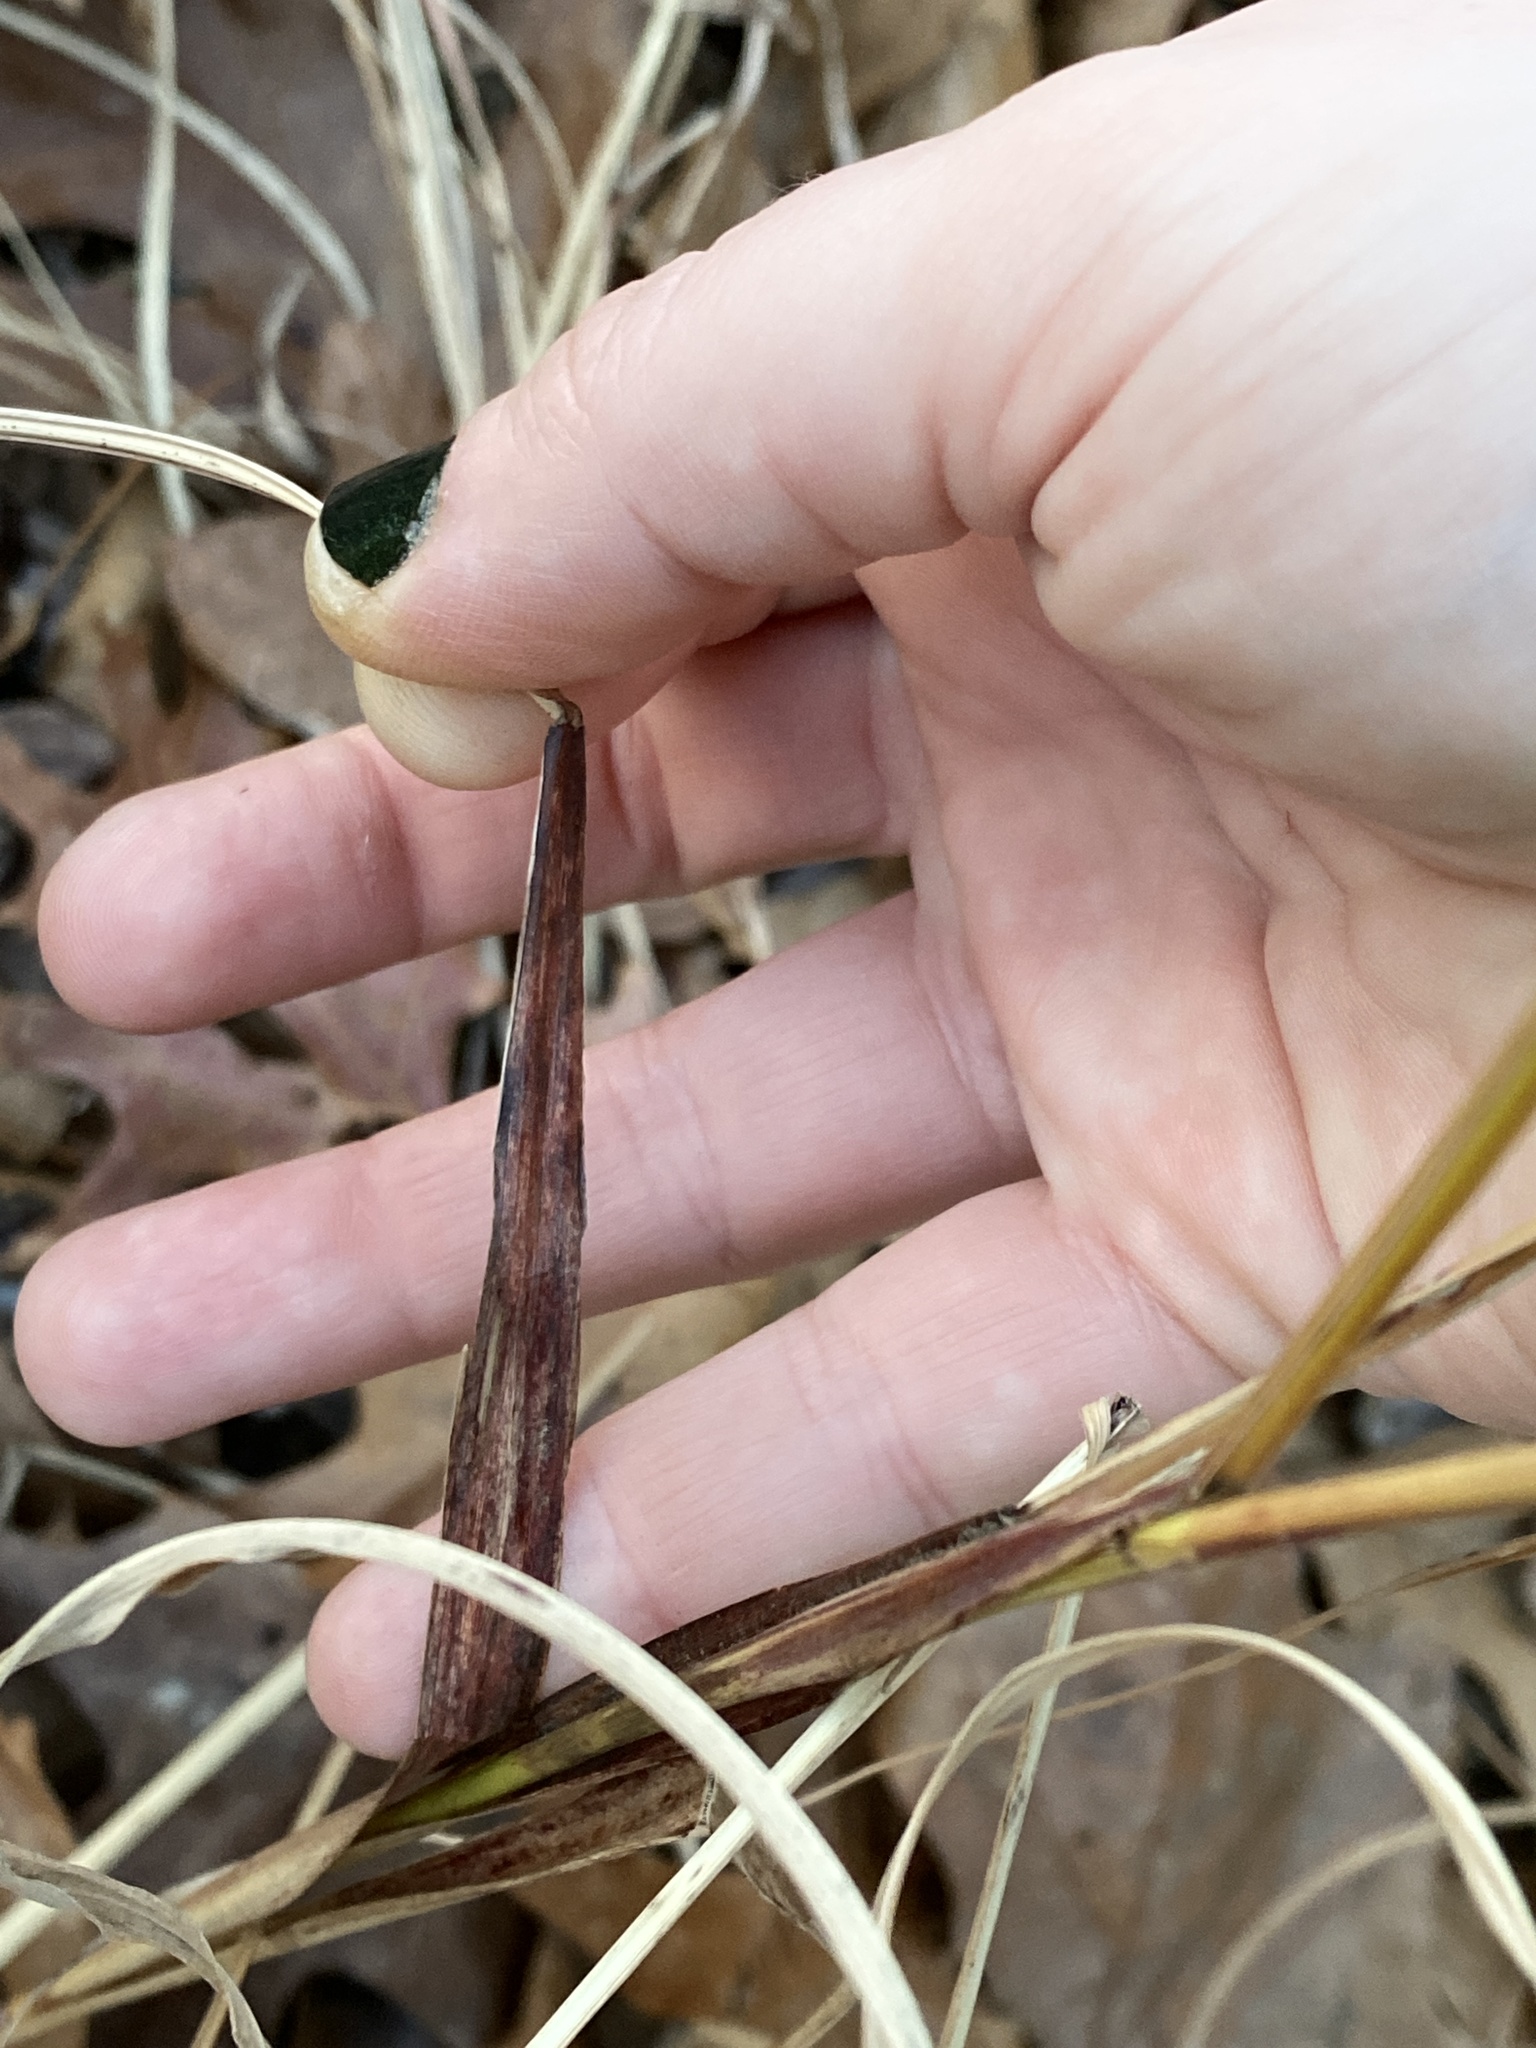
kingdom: Plantae
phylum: Tracheophyta
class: Liliopsida
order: Poales
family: Poaceae
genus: Miscanthus
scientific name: Miscanthus sinensis
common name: Chinese silvergrass
